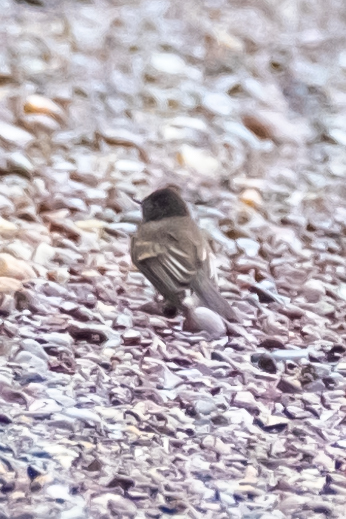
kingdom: Animalia
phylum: Chordata
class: Aves
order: Passeriformes
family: Tyrannidae
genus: Sayornis
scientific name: Sayornis nigricans
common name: Black phoebe
